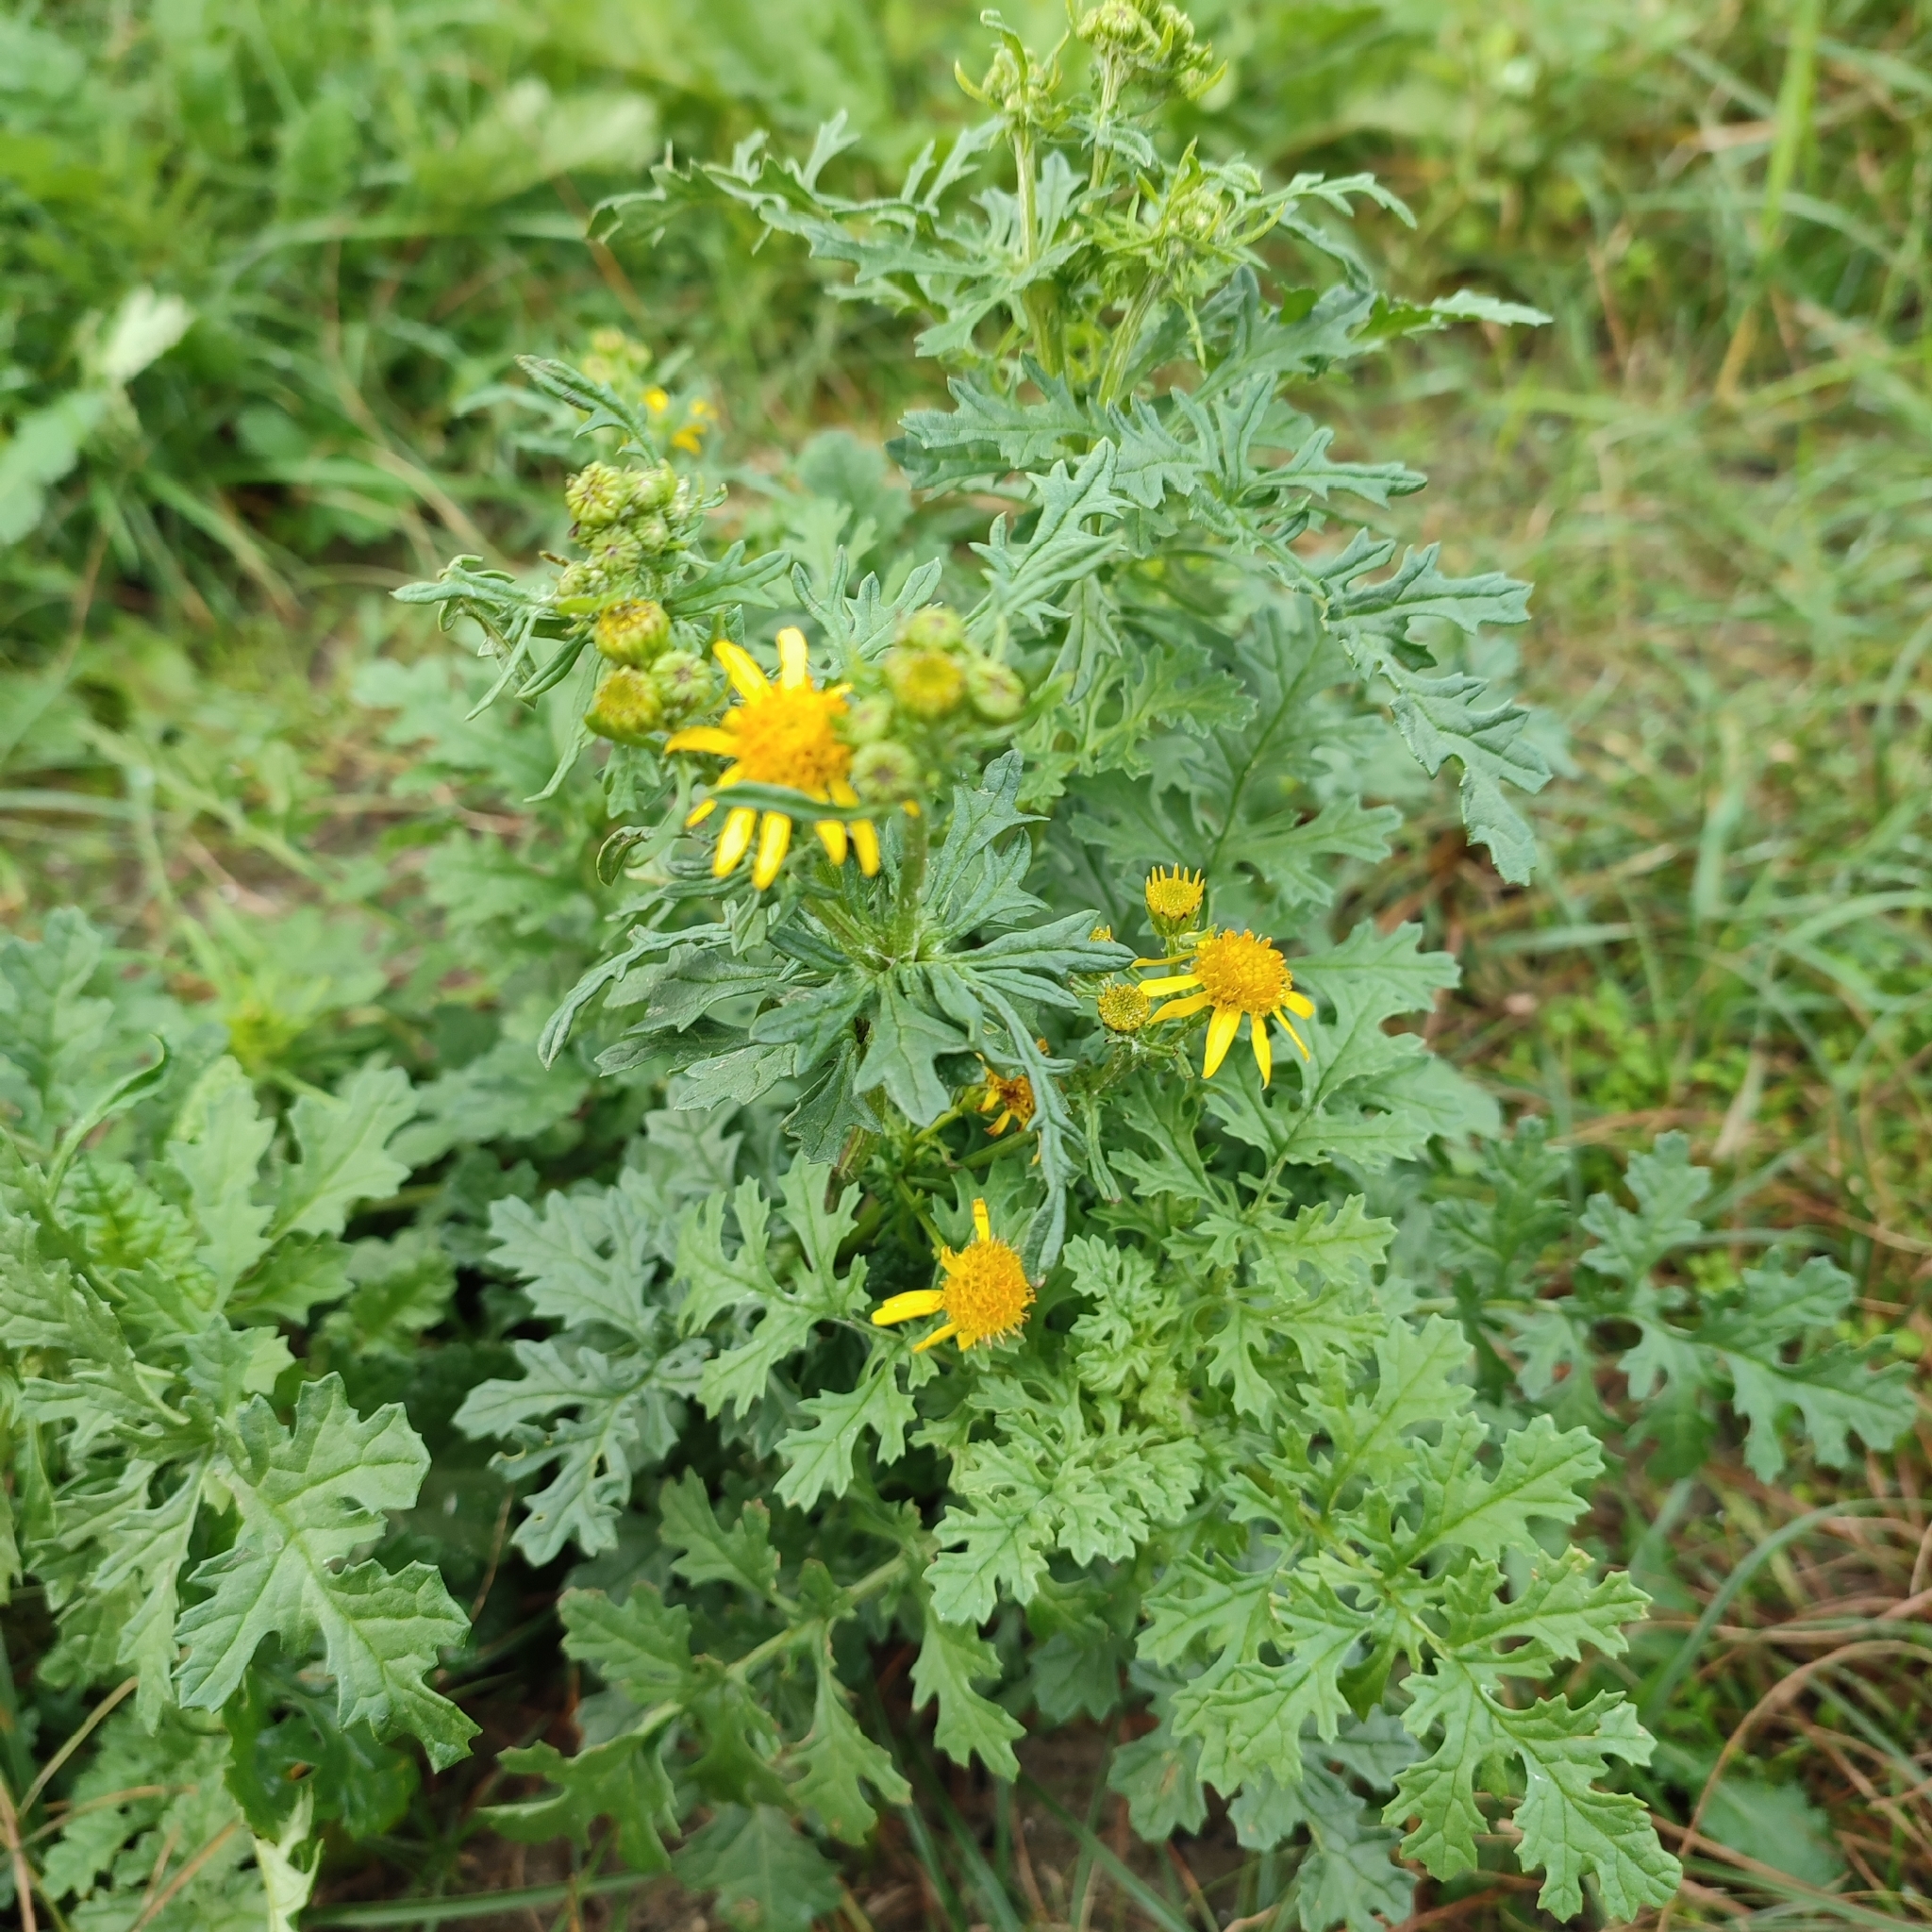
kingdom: Plantae
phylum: Tracheophyta
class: Magnoliopsida
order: Asterales
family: Asteraceae
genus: Jacobaea
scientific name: Jacobaea vulgaris
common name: Stinking willie
